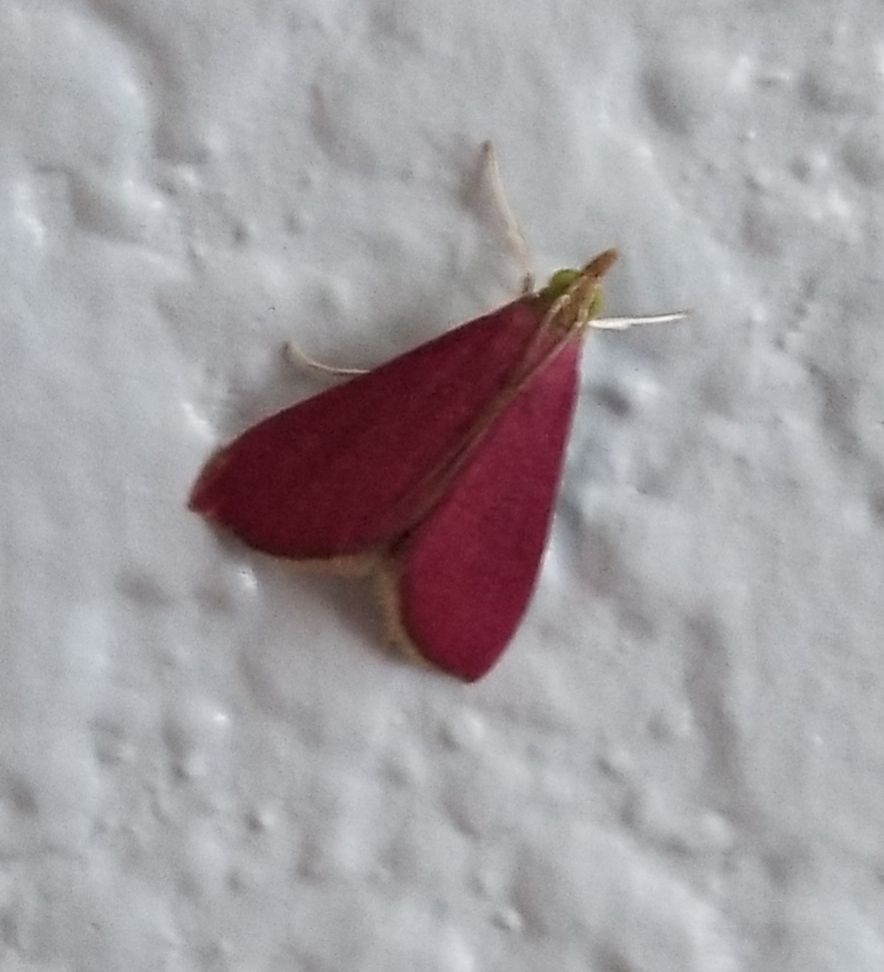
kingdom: Animalia
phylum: Arthropoda
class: Insecta
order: Lepidoptera
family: Crambidae
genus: Pyrausta
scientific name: Pyrausta inornatalis
